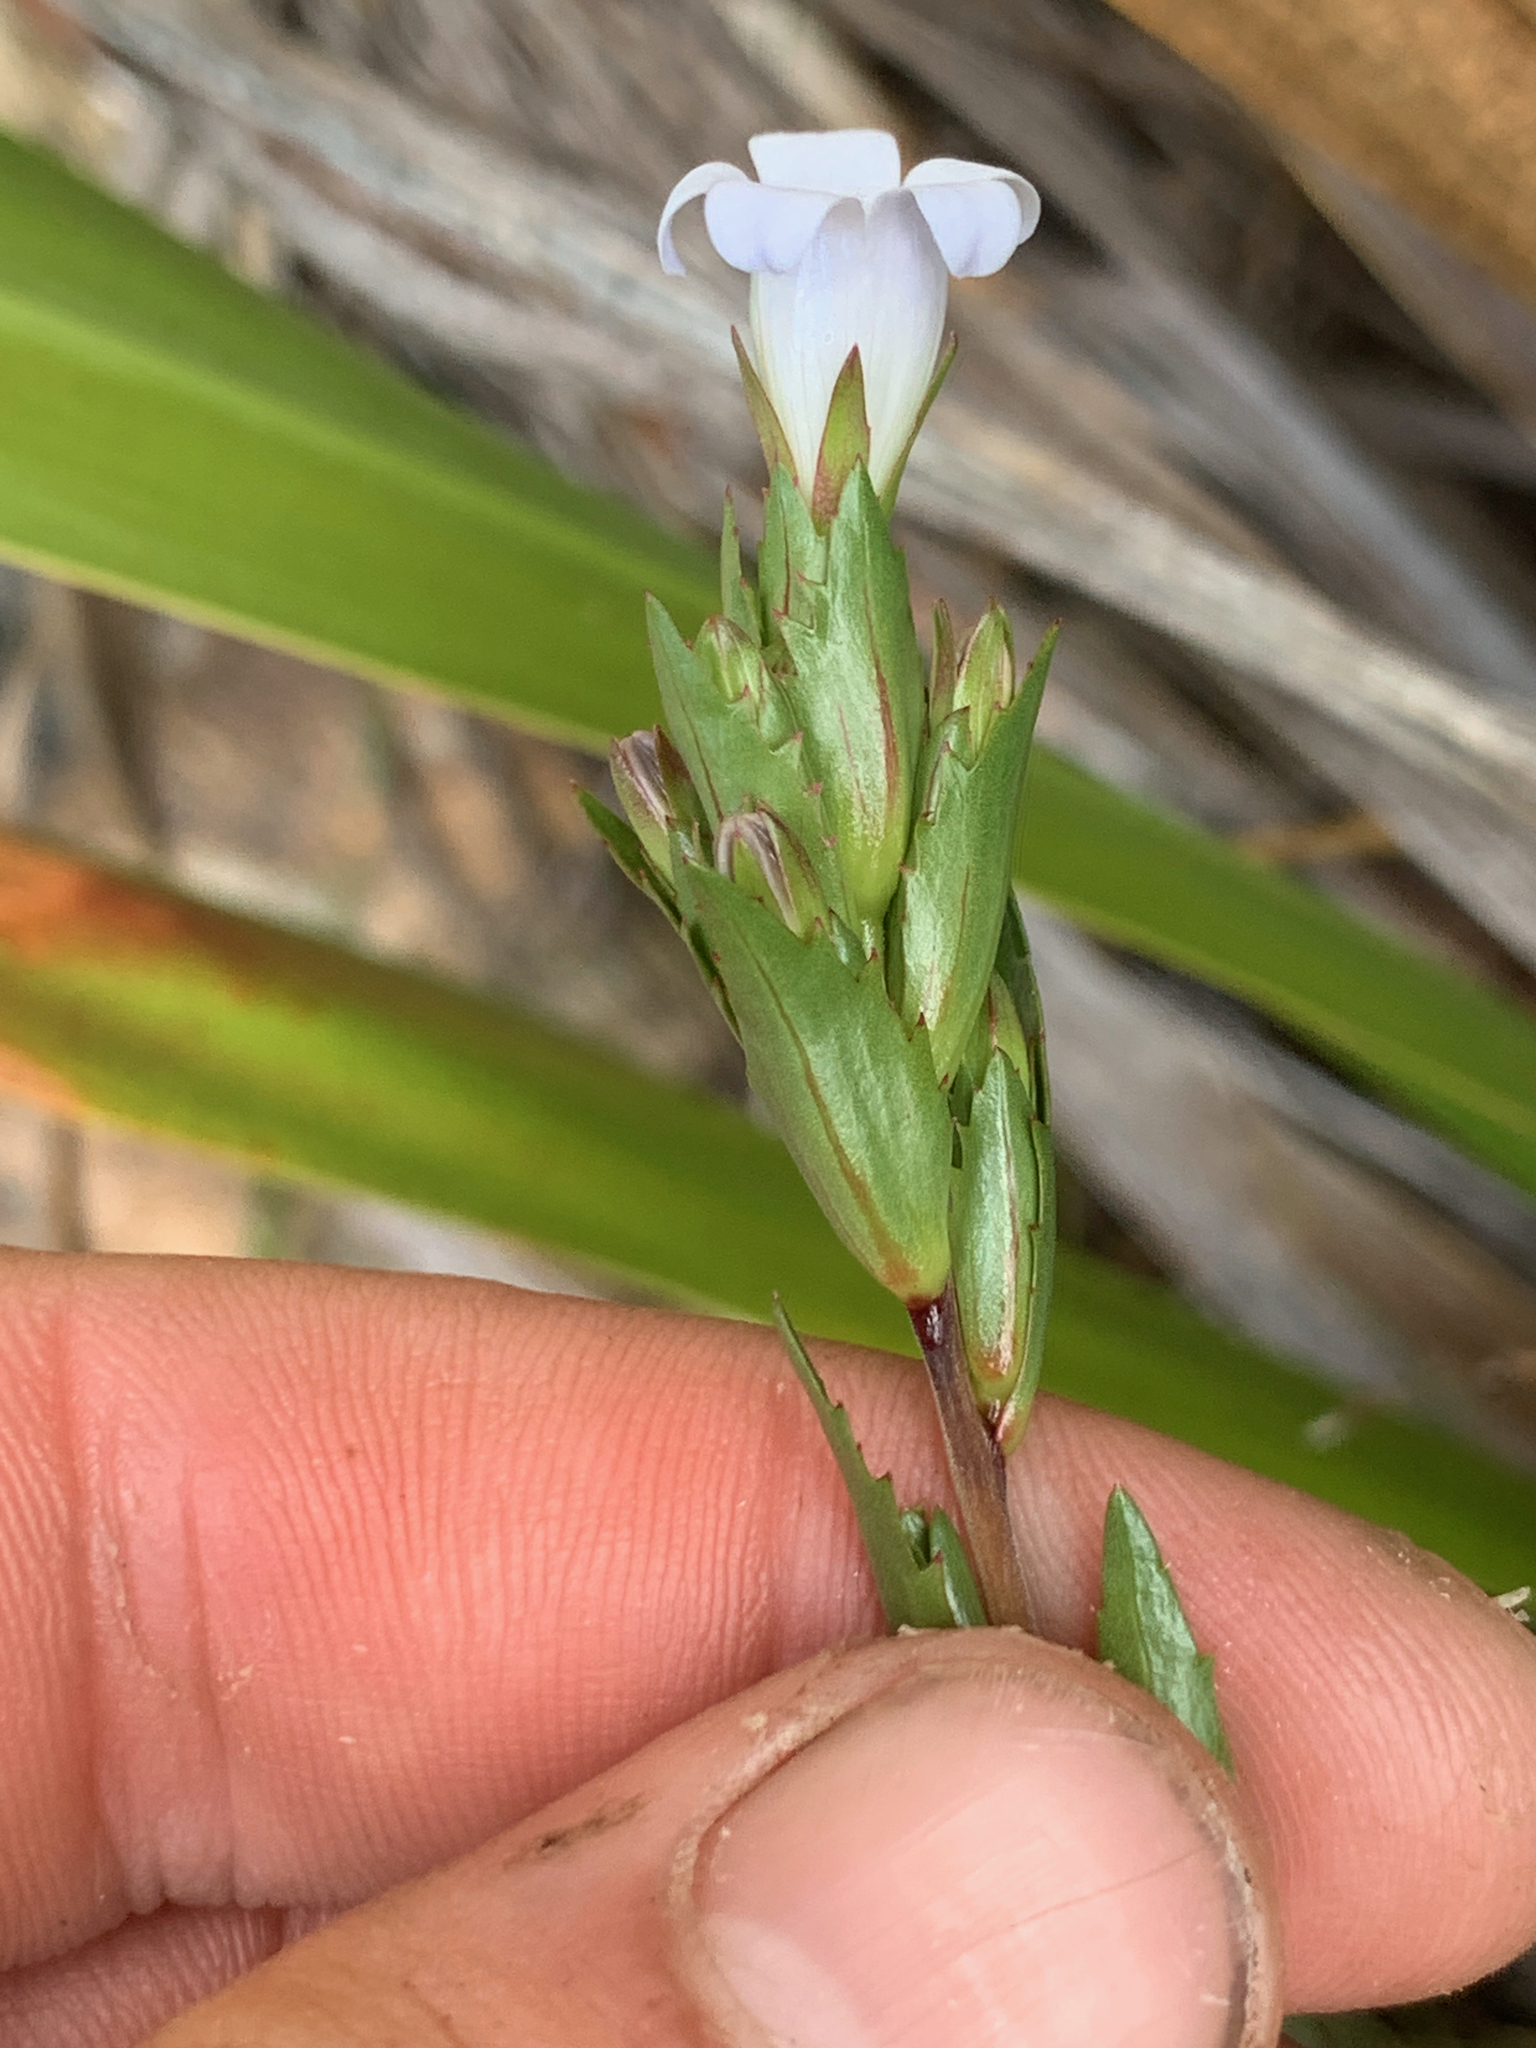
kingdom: Plantae
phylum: Tracheophyta
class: Magnoliopsida
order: Asterales
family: Campanulaceae
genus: Prismatocarpus
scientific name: Prismatocarpus nitidus
